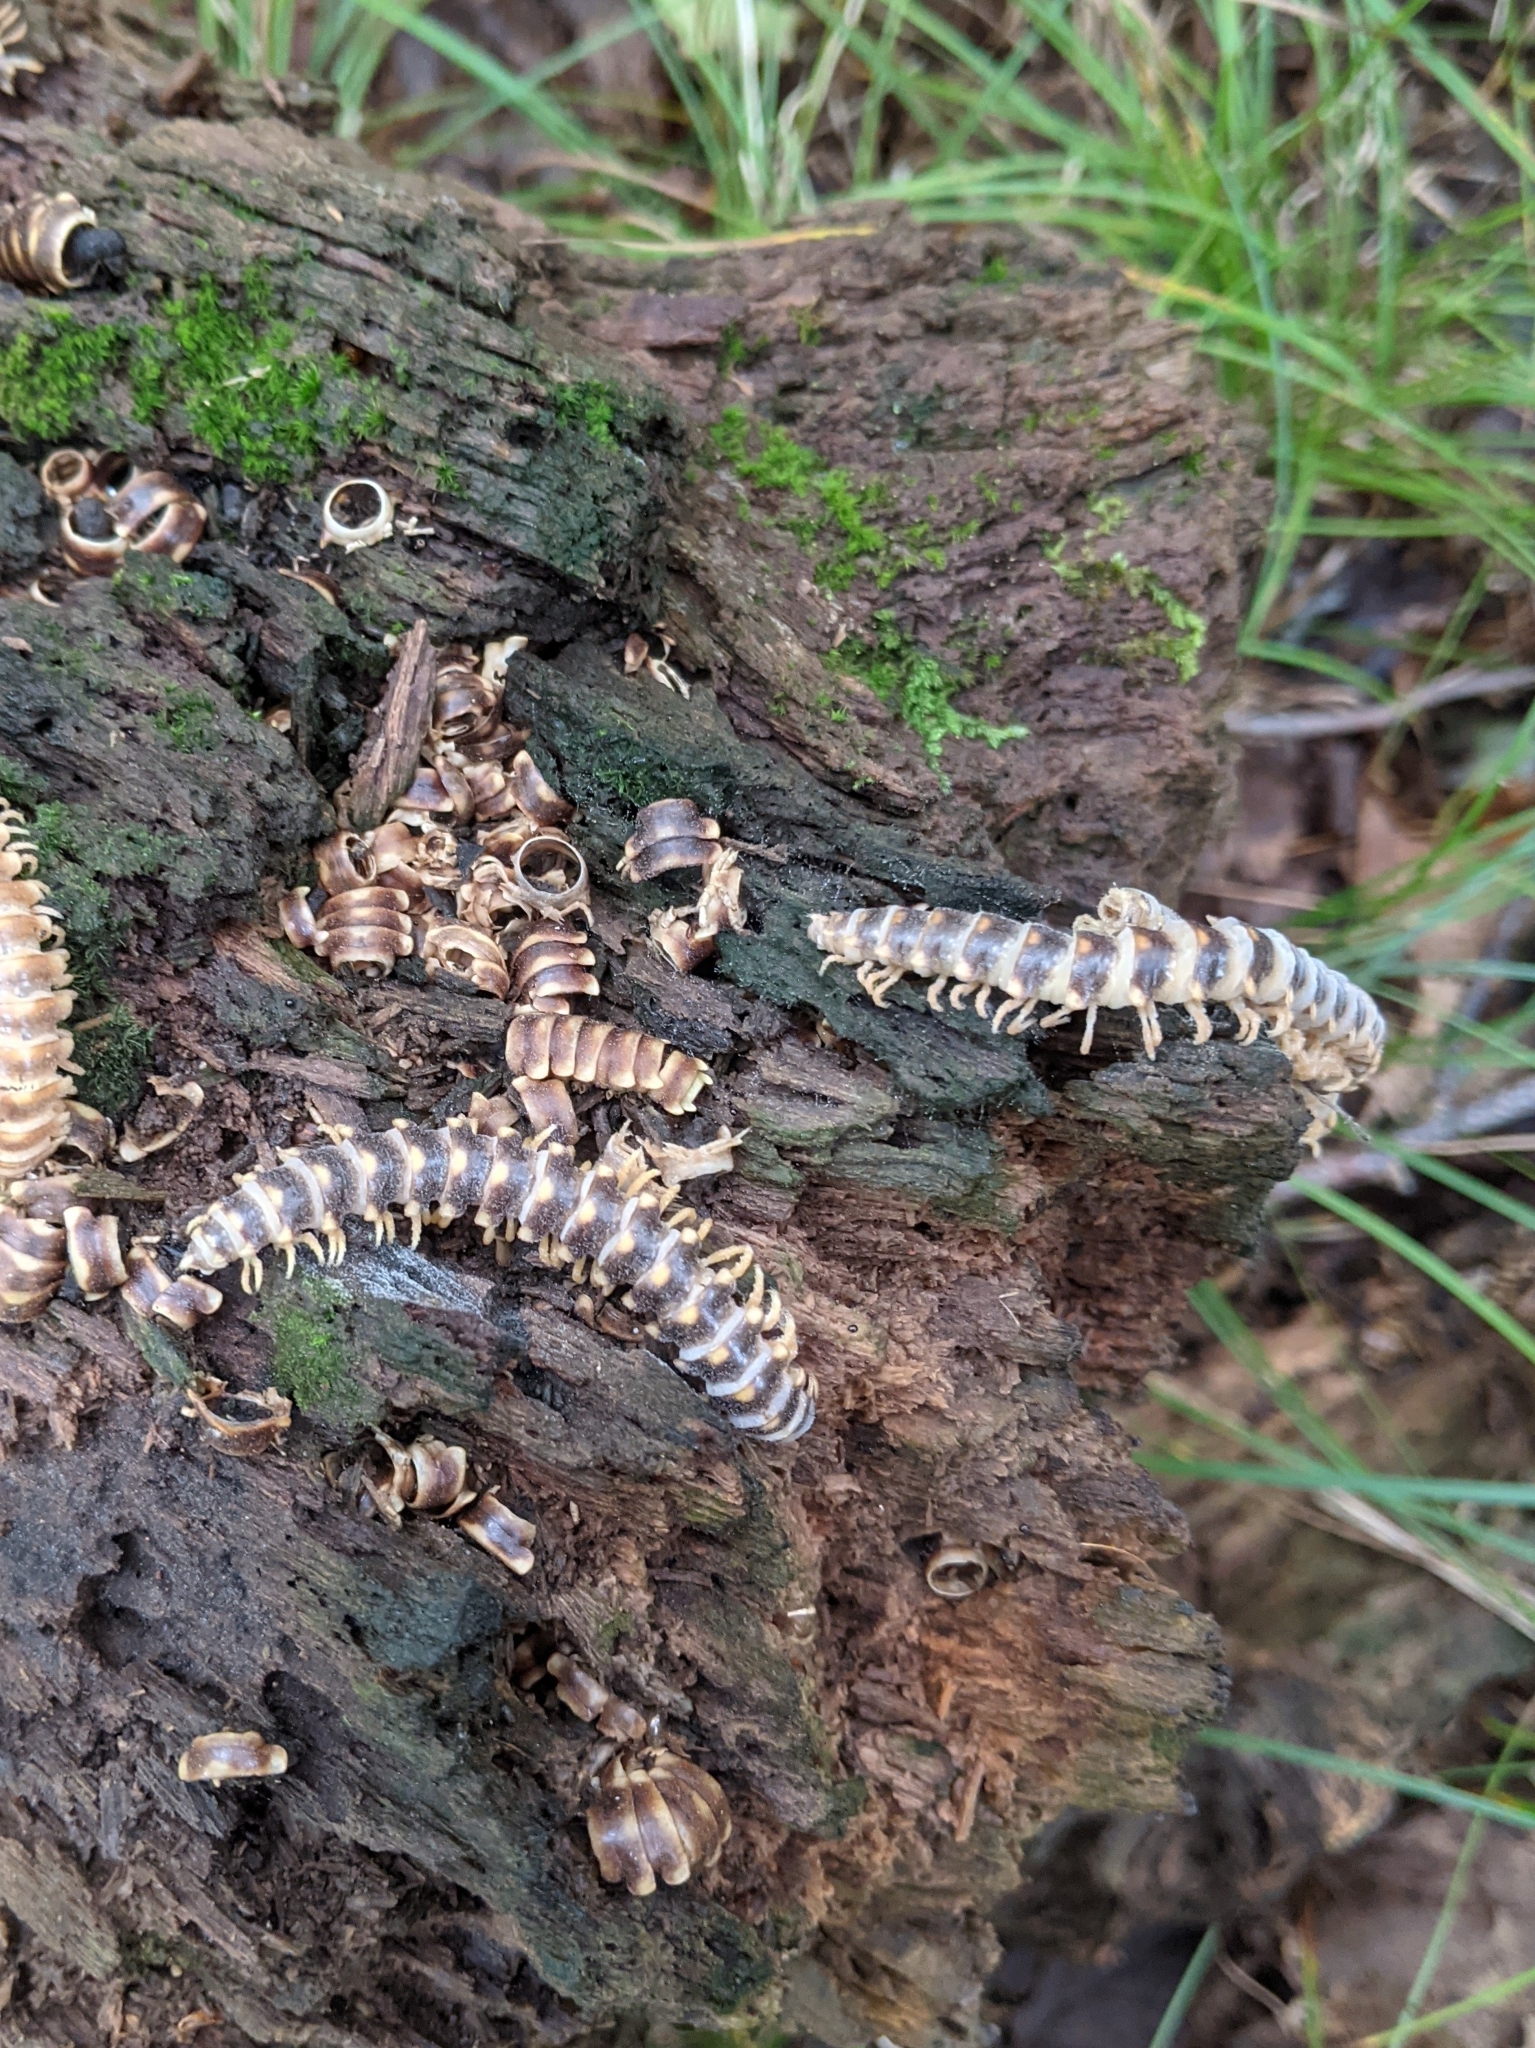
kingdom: Fungi
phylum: Entomophthoromycota
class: Entomophthoromycetes
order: Entomophthorales
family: Entomophthoraceae
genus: Arthrophaga
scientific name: Arthrophaga myriapodina
